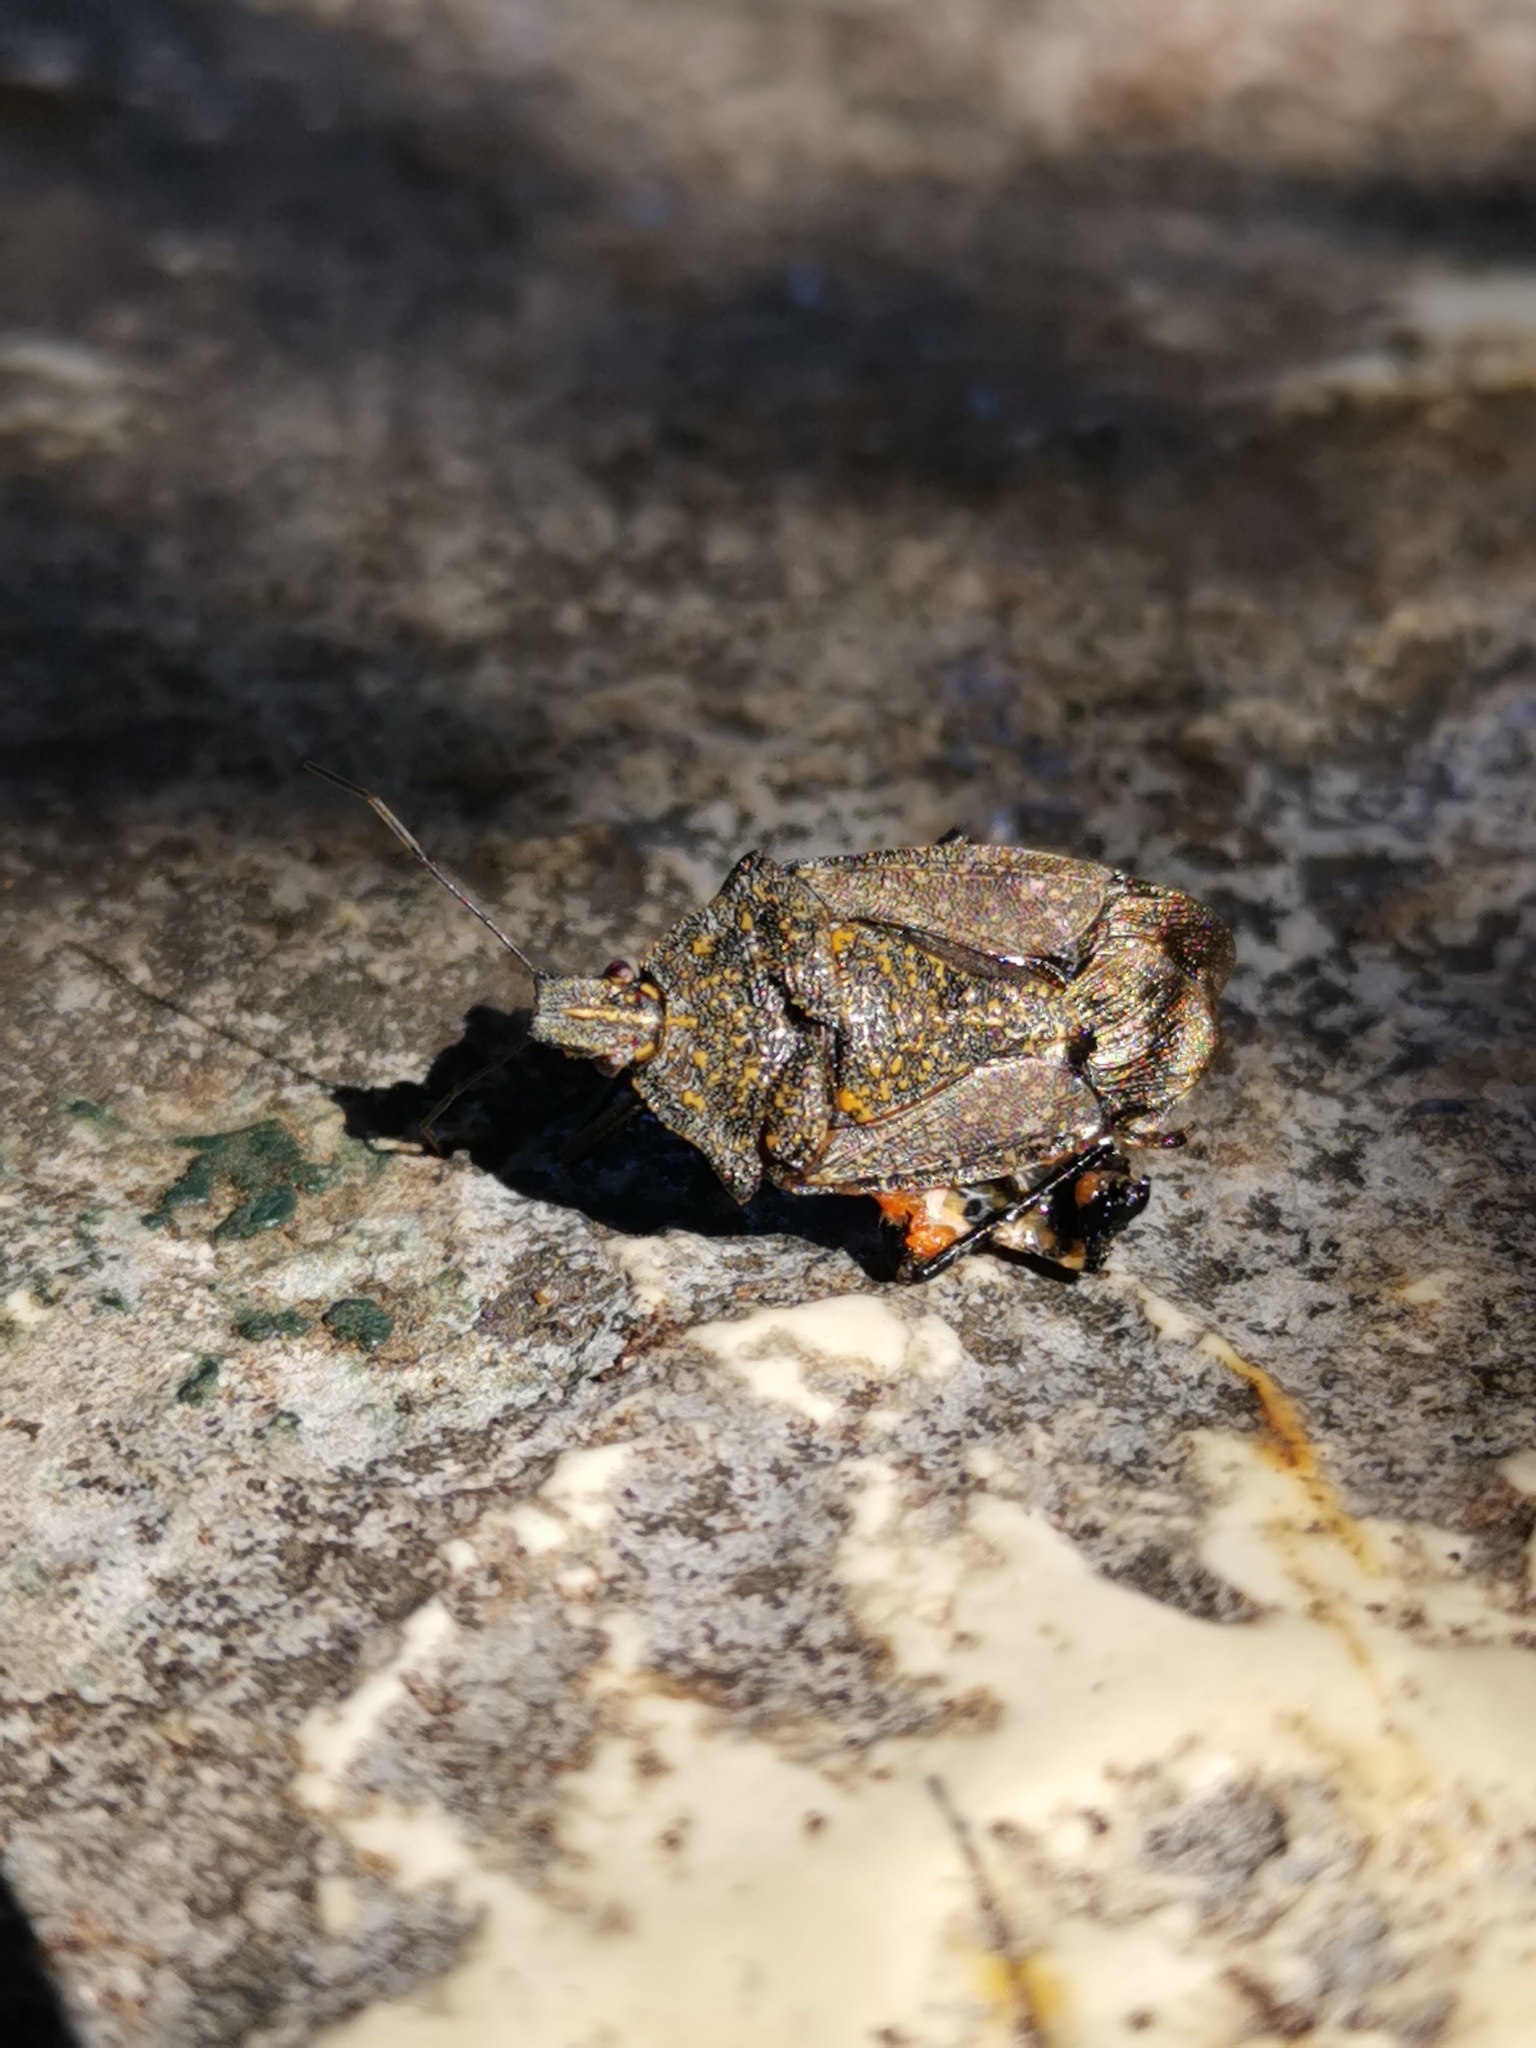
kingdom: Animalia
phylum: Arthropoda
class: Insecta
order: Hemiptera
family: Pentatomidae
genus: Apodiphus
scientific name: Apodiphus amygdali
